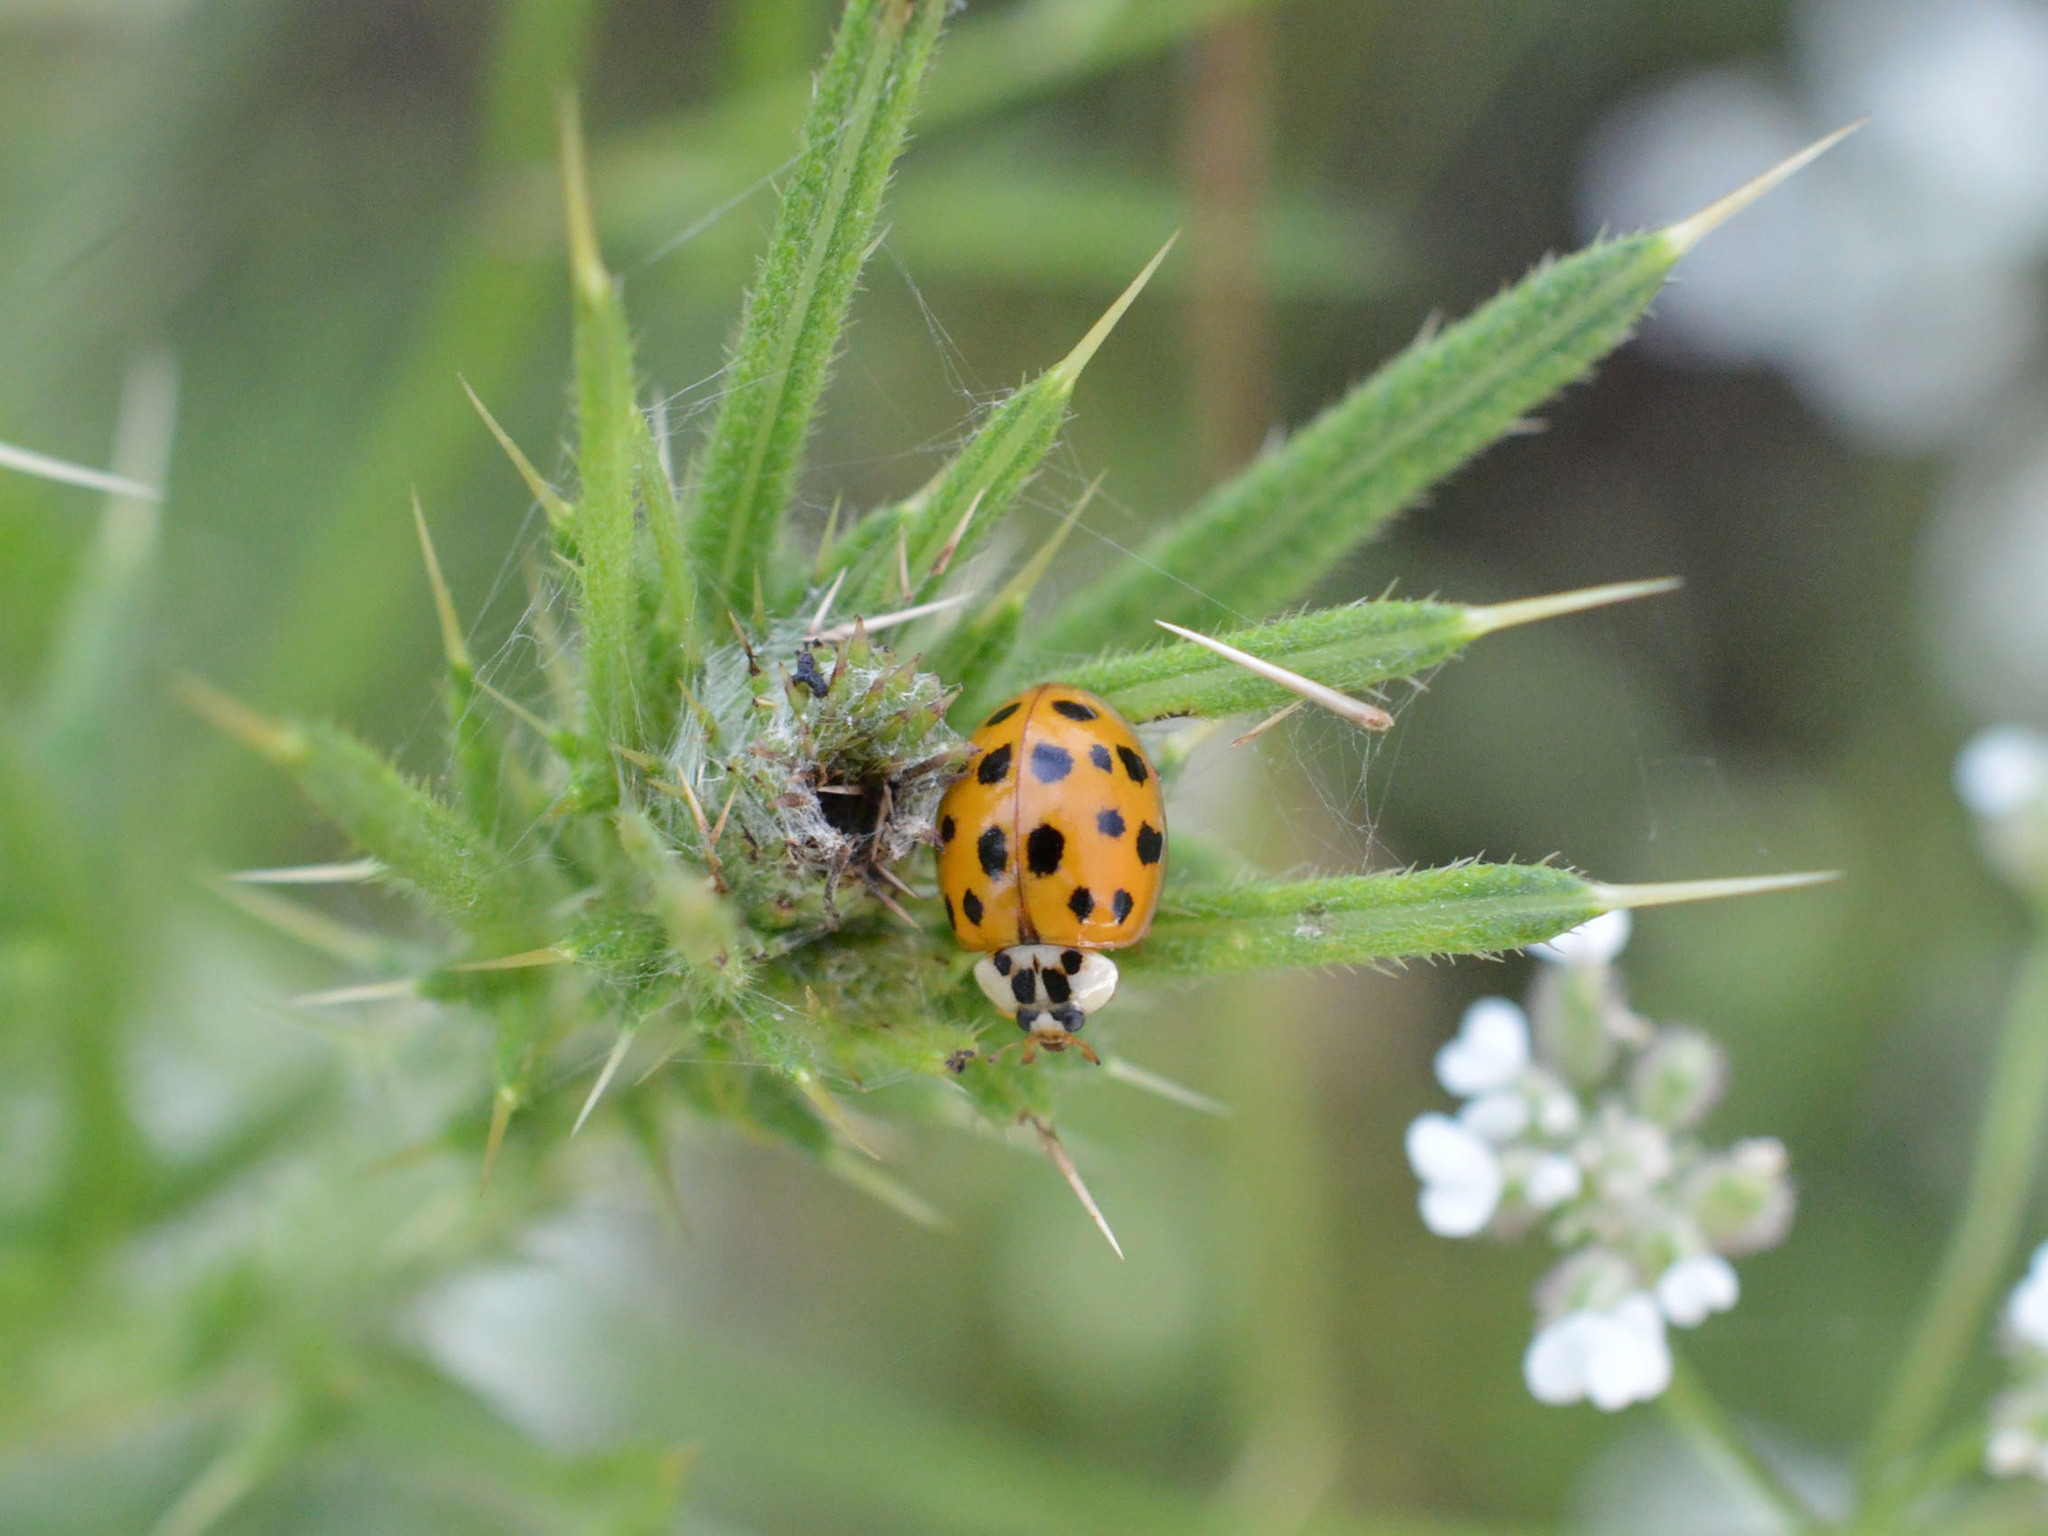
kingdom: Animalia
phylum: Arthropoda
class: Insecta
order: Coleoptera
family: Coccinellidae
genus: Harmonia
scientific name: Harmonia axyridis
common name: Harlequin ladybird
